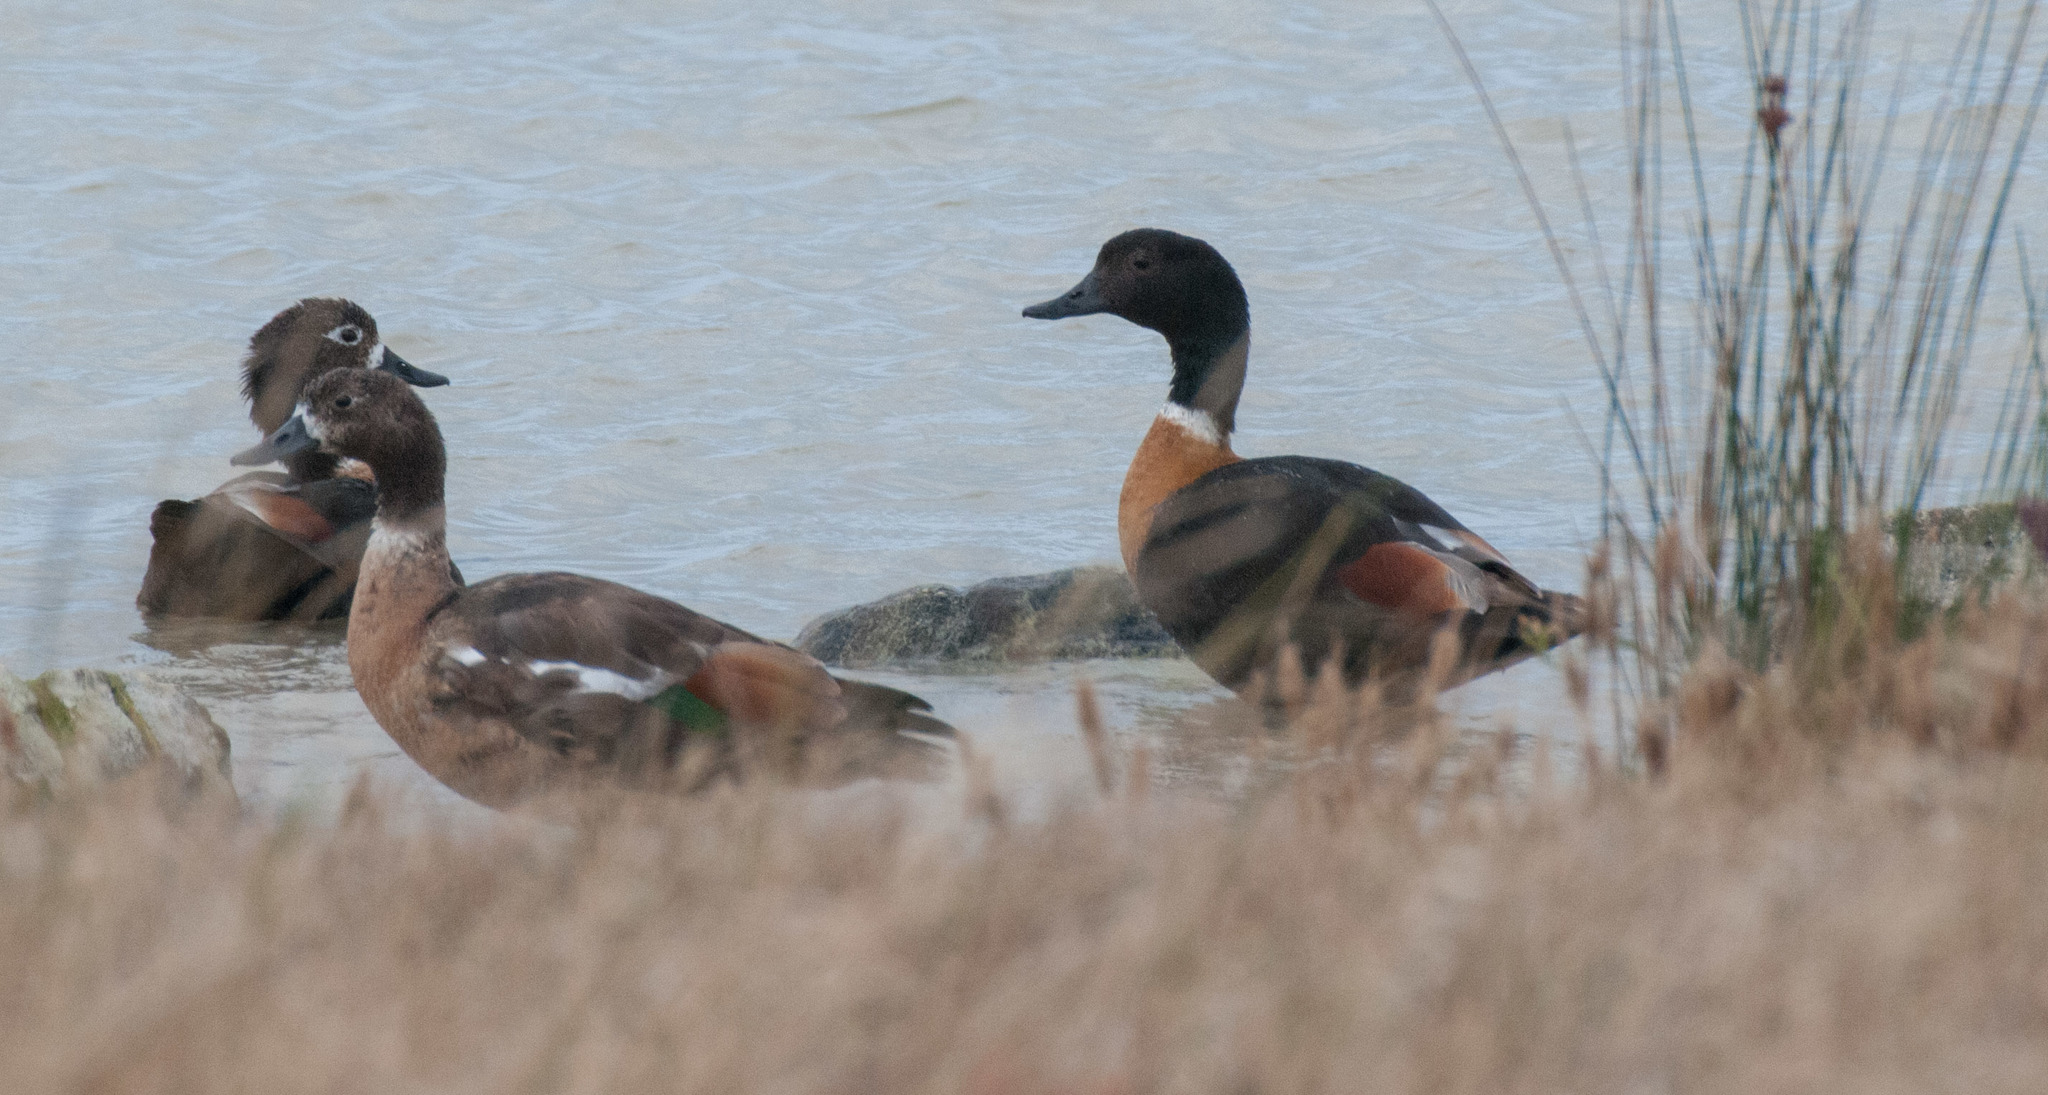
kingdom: Animalia
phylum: Chordata
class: Aves
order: Anseriformes
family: Anatidae
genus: Tadorna
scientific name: Tadorna tadornoides
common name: Australian shelduck
